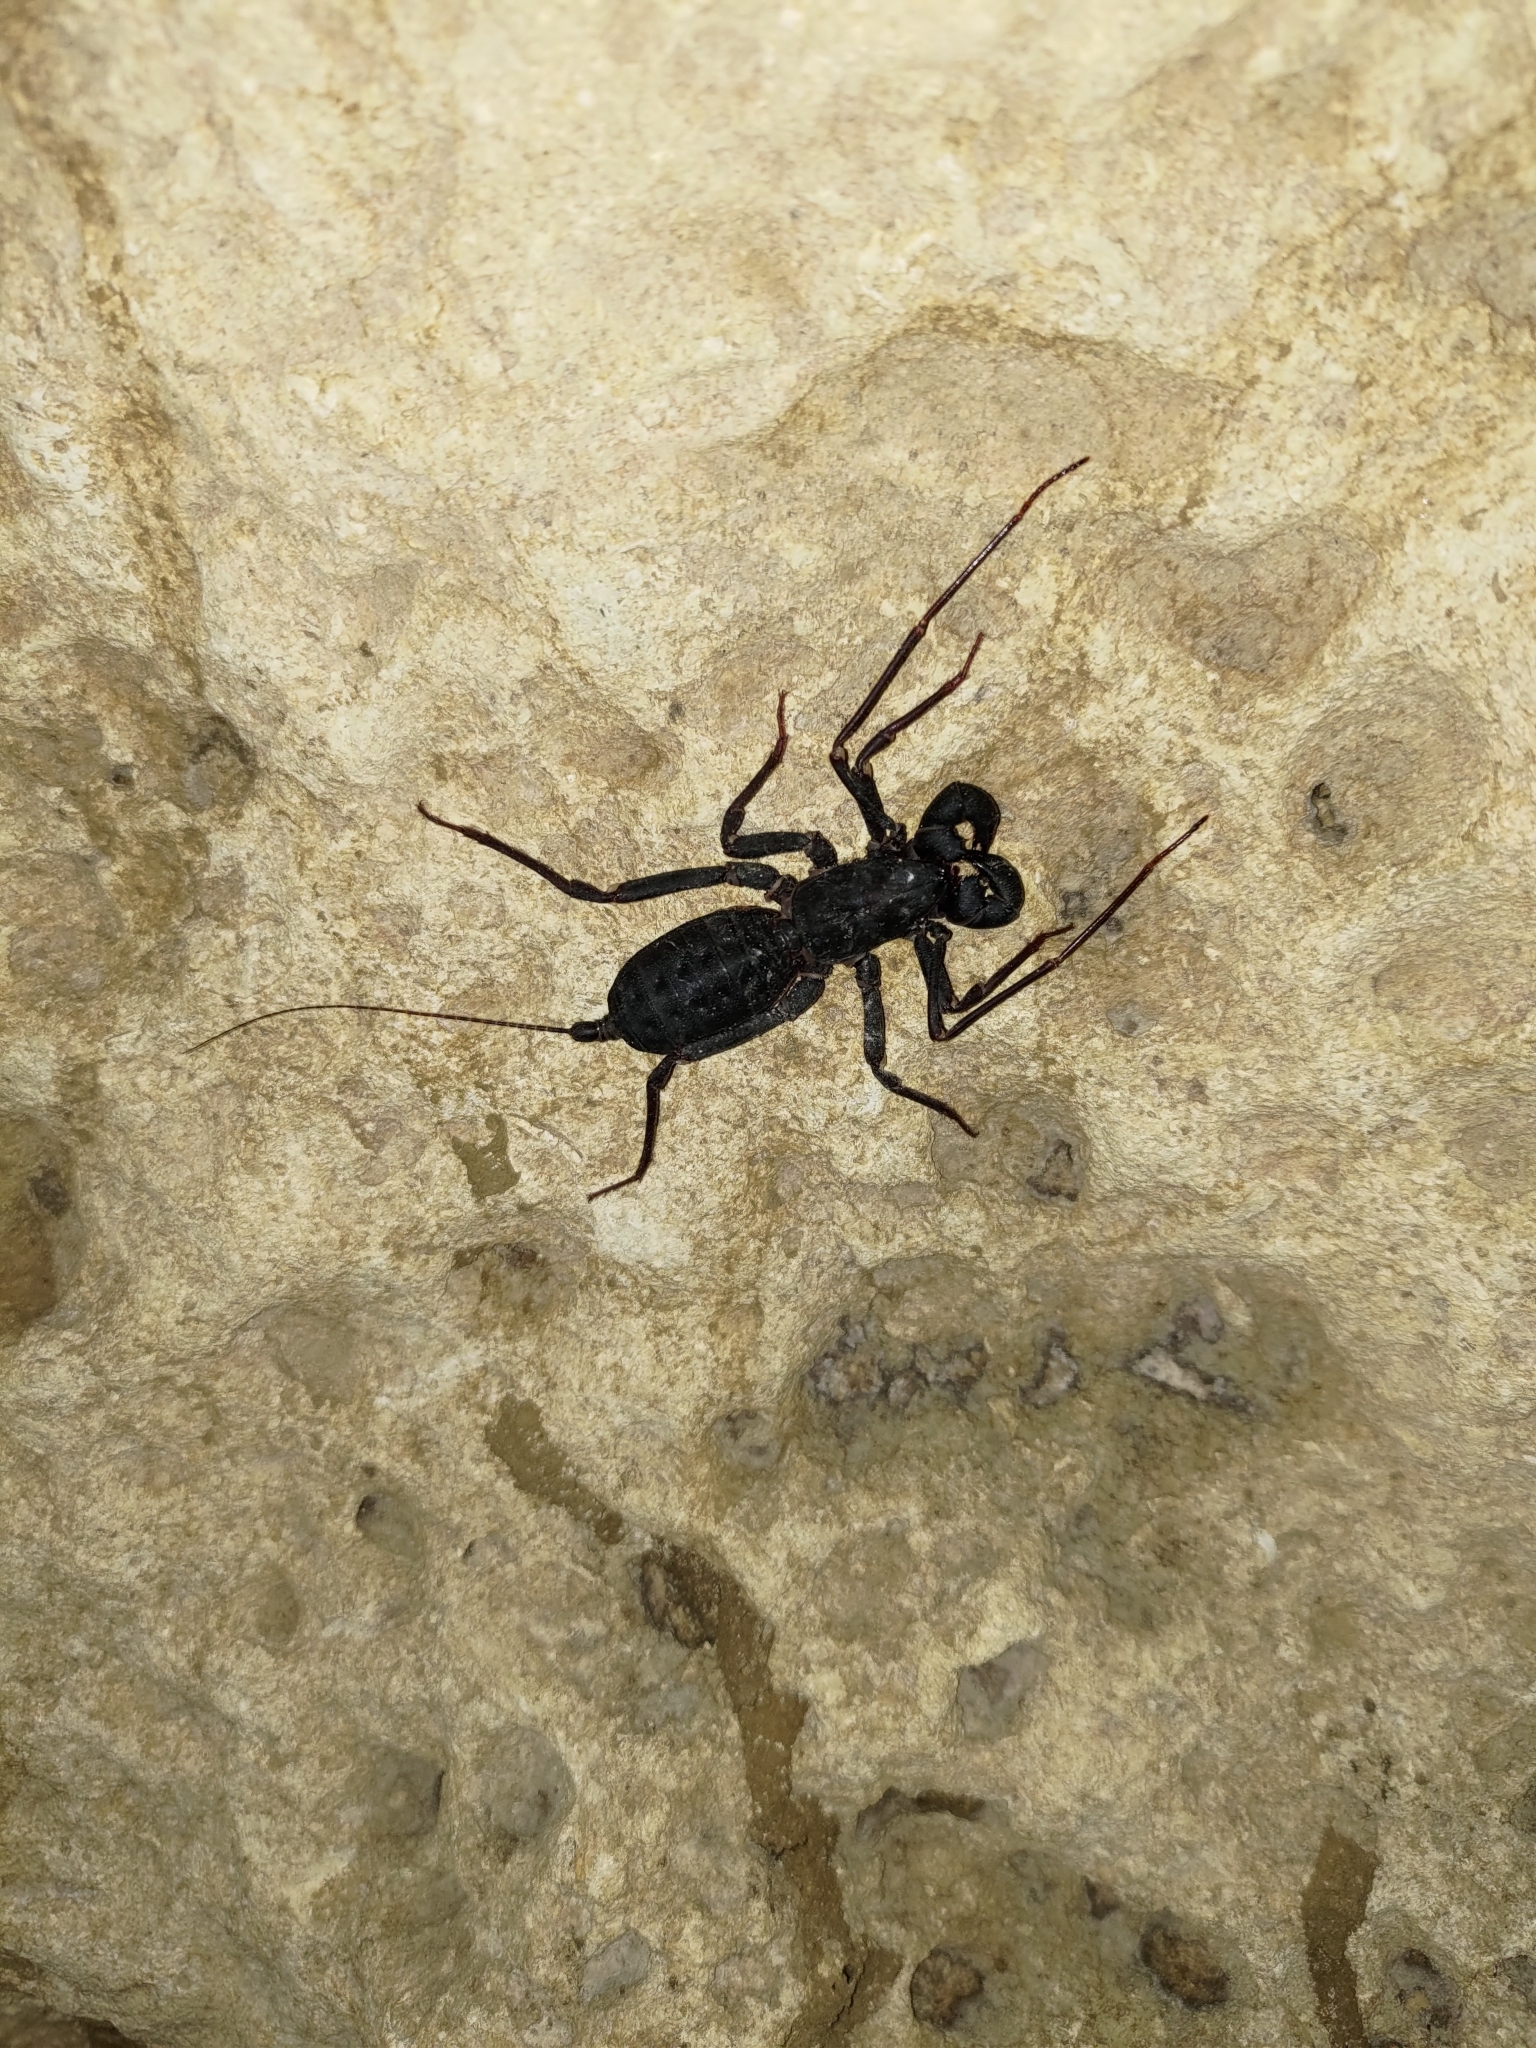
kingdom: Animalia
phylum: Arthropoda
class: Arachnida
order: Uropygi
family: Thelyphonidae
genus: Typopeltis
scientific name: Typopeltis crucifer
